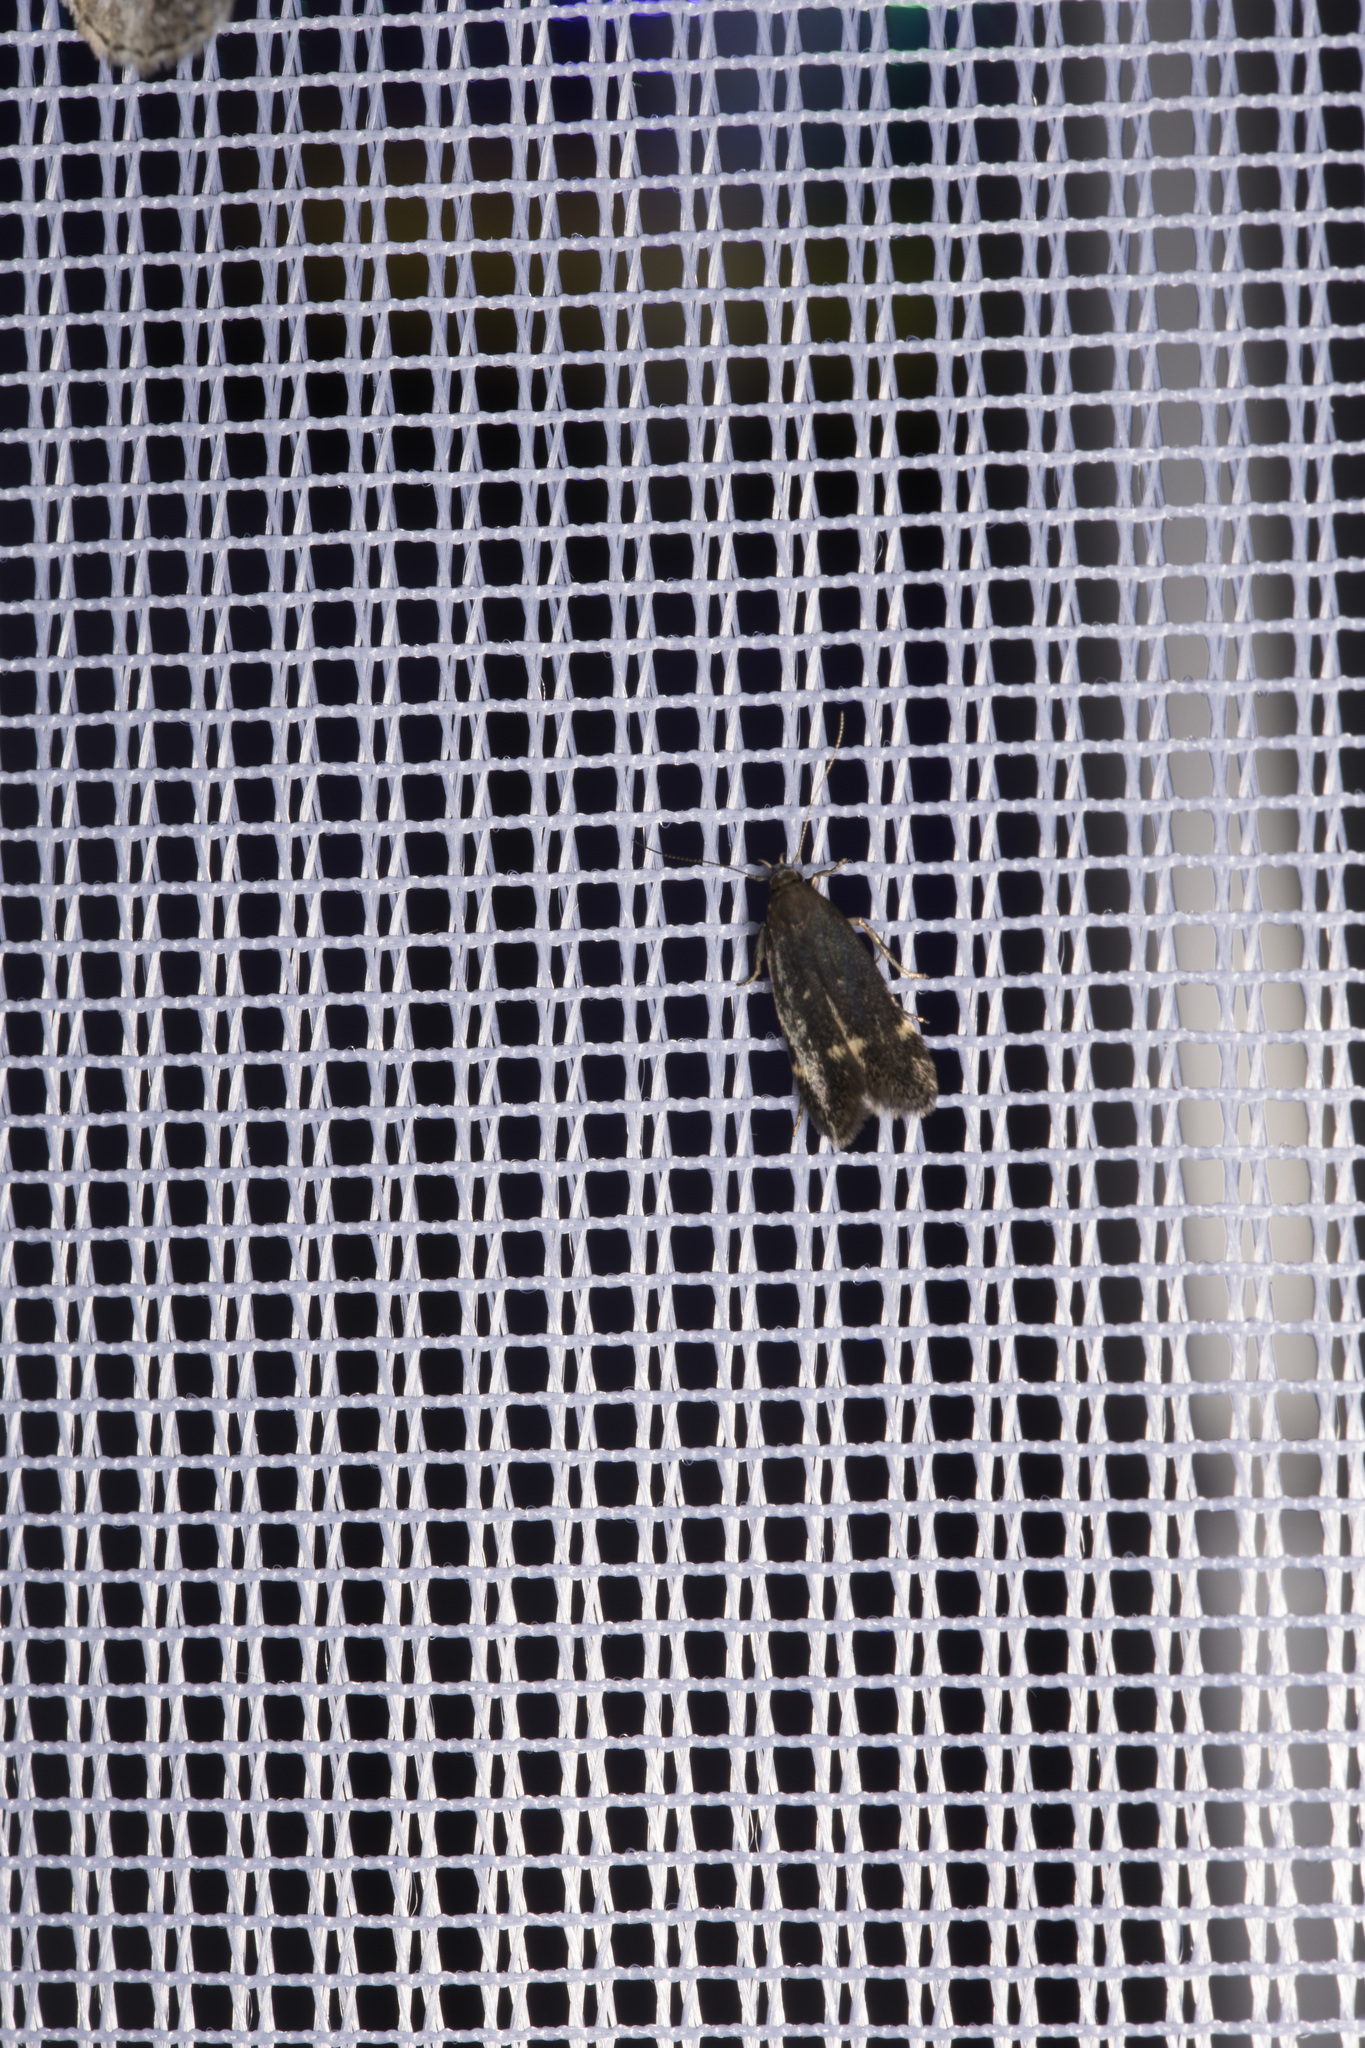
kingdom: Animalia
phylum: Arthropoda
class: Insecta
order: Lepidoptera
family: Gelechiidae
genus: Aproaerema
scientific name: Aproaerema anthyllidella
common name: Vetch sober
